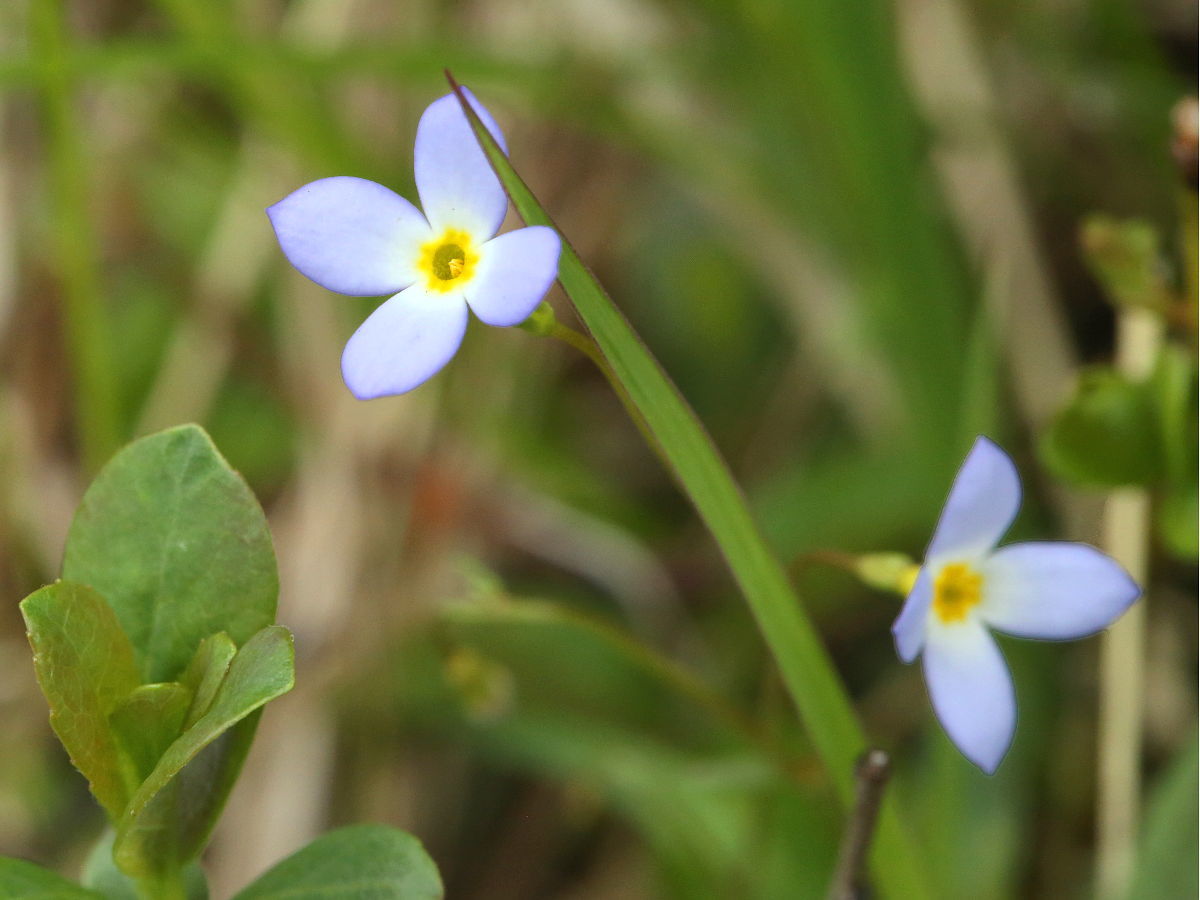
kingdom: Plantae
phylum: Tracheophyta
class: Magnoliopsida
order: Gentianales
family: Rubiaceae
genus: Houstonia
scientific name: Houstonia caerulea
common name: Bluets
